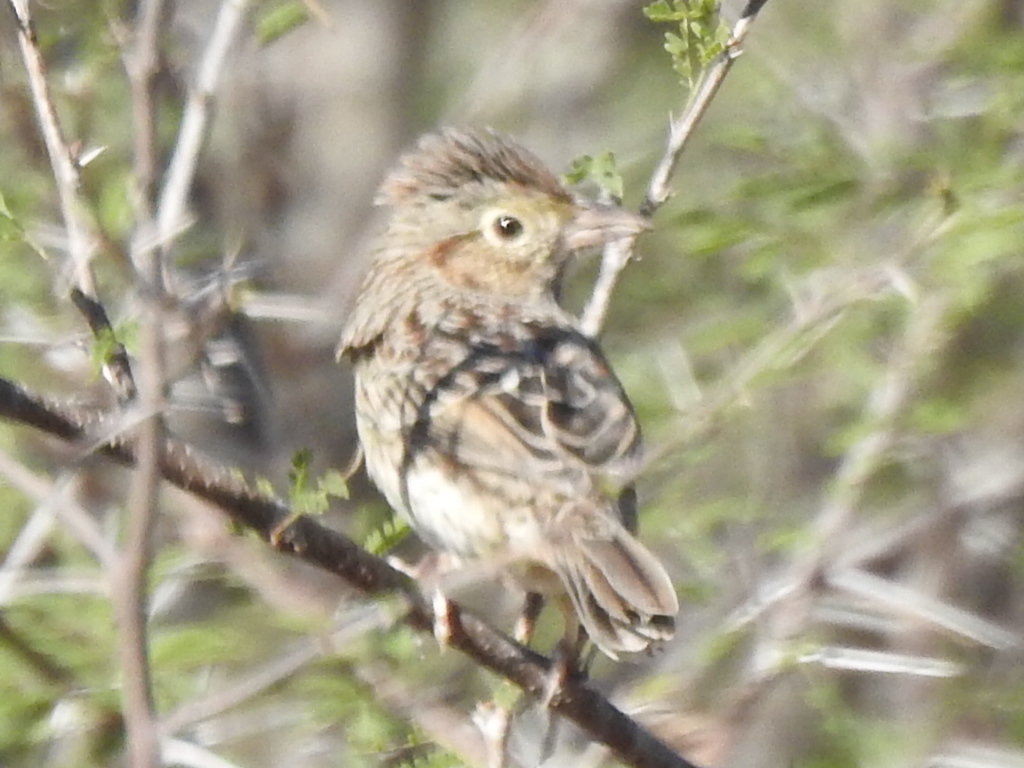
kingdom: Animalia
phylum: Chordata
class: Aves
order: Passeriformes
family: Passerellidae
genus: Peucaea
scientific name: Peucaea cassinii
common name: Cassin's sparrow
